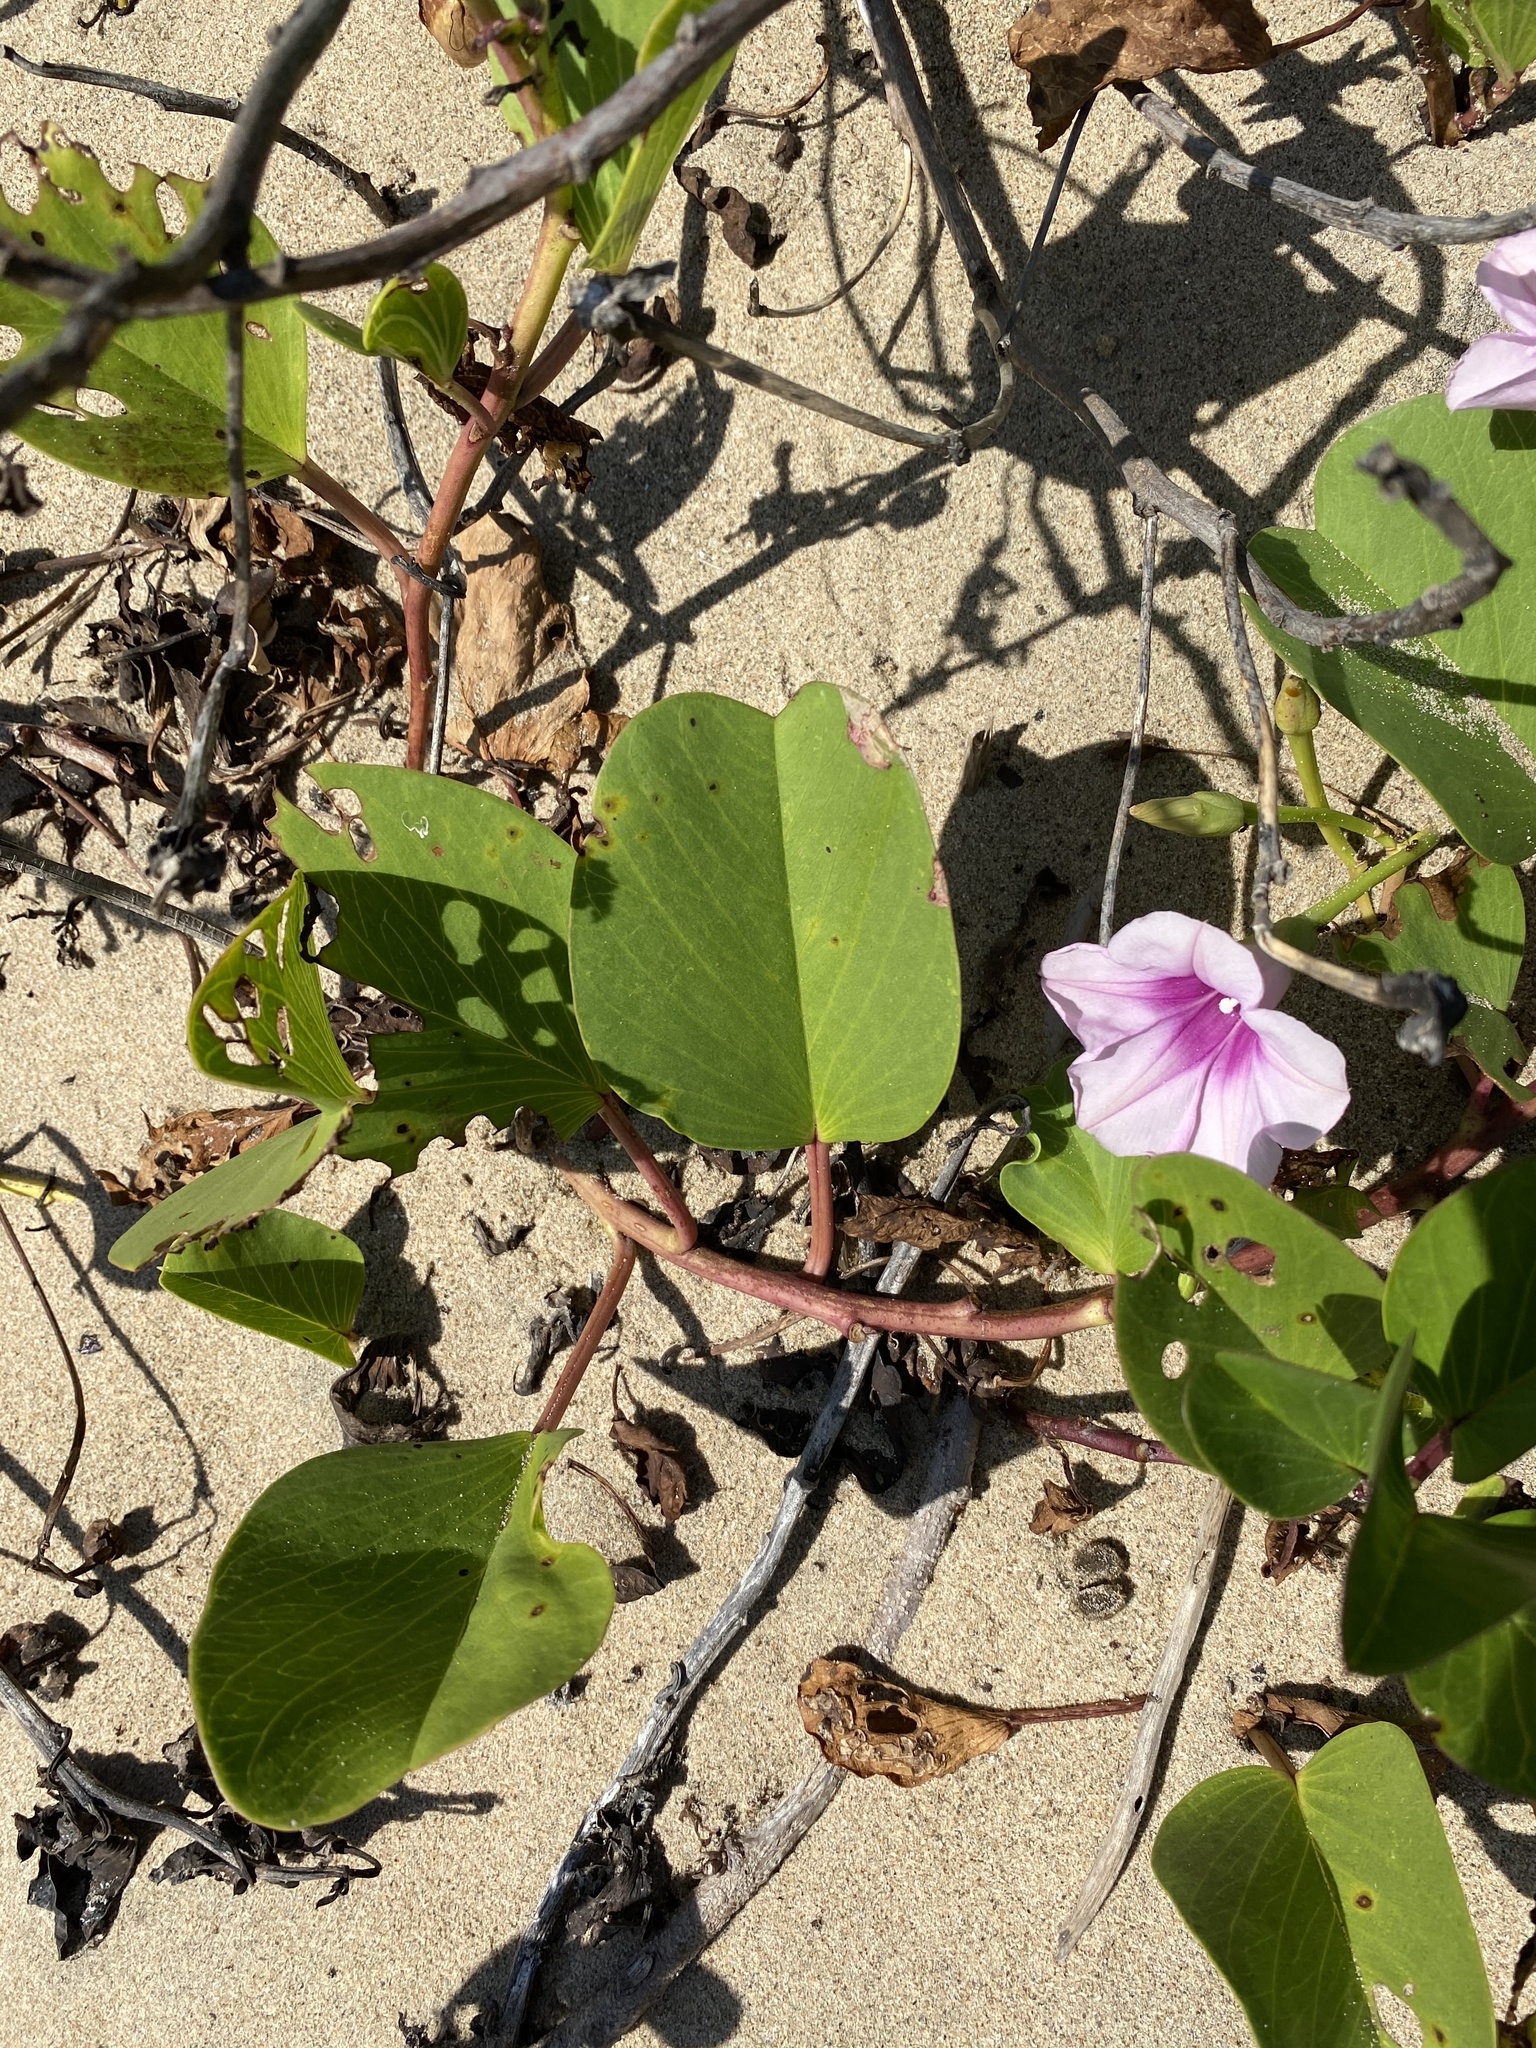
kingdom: Plantae
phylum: Tracheophyta
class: Magnoliopsida
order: Solanales
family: Convolvulaceae
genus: Ipomoea
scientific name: Ipomoea pes-caprae
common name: Beach morning glory
